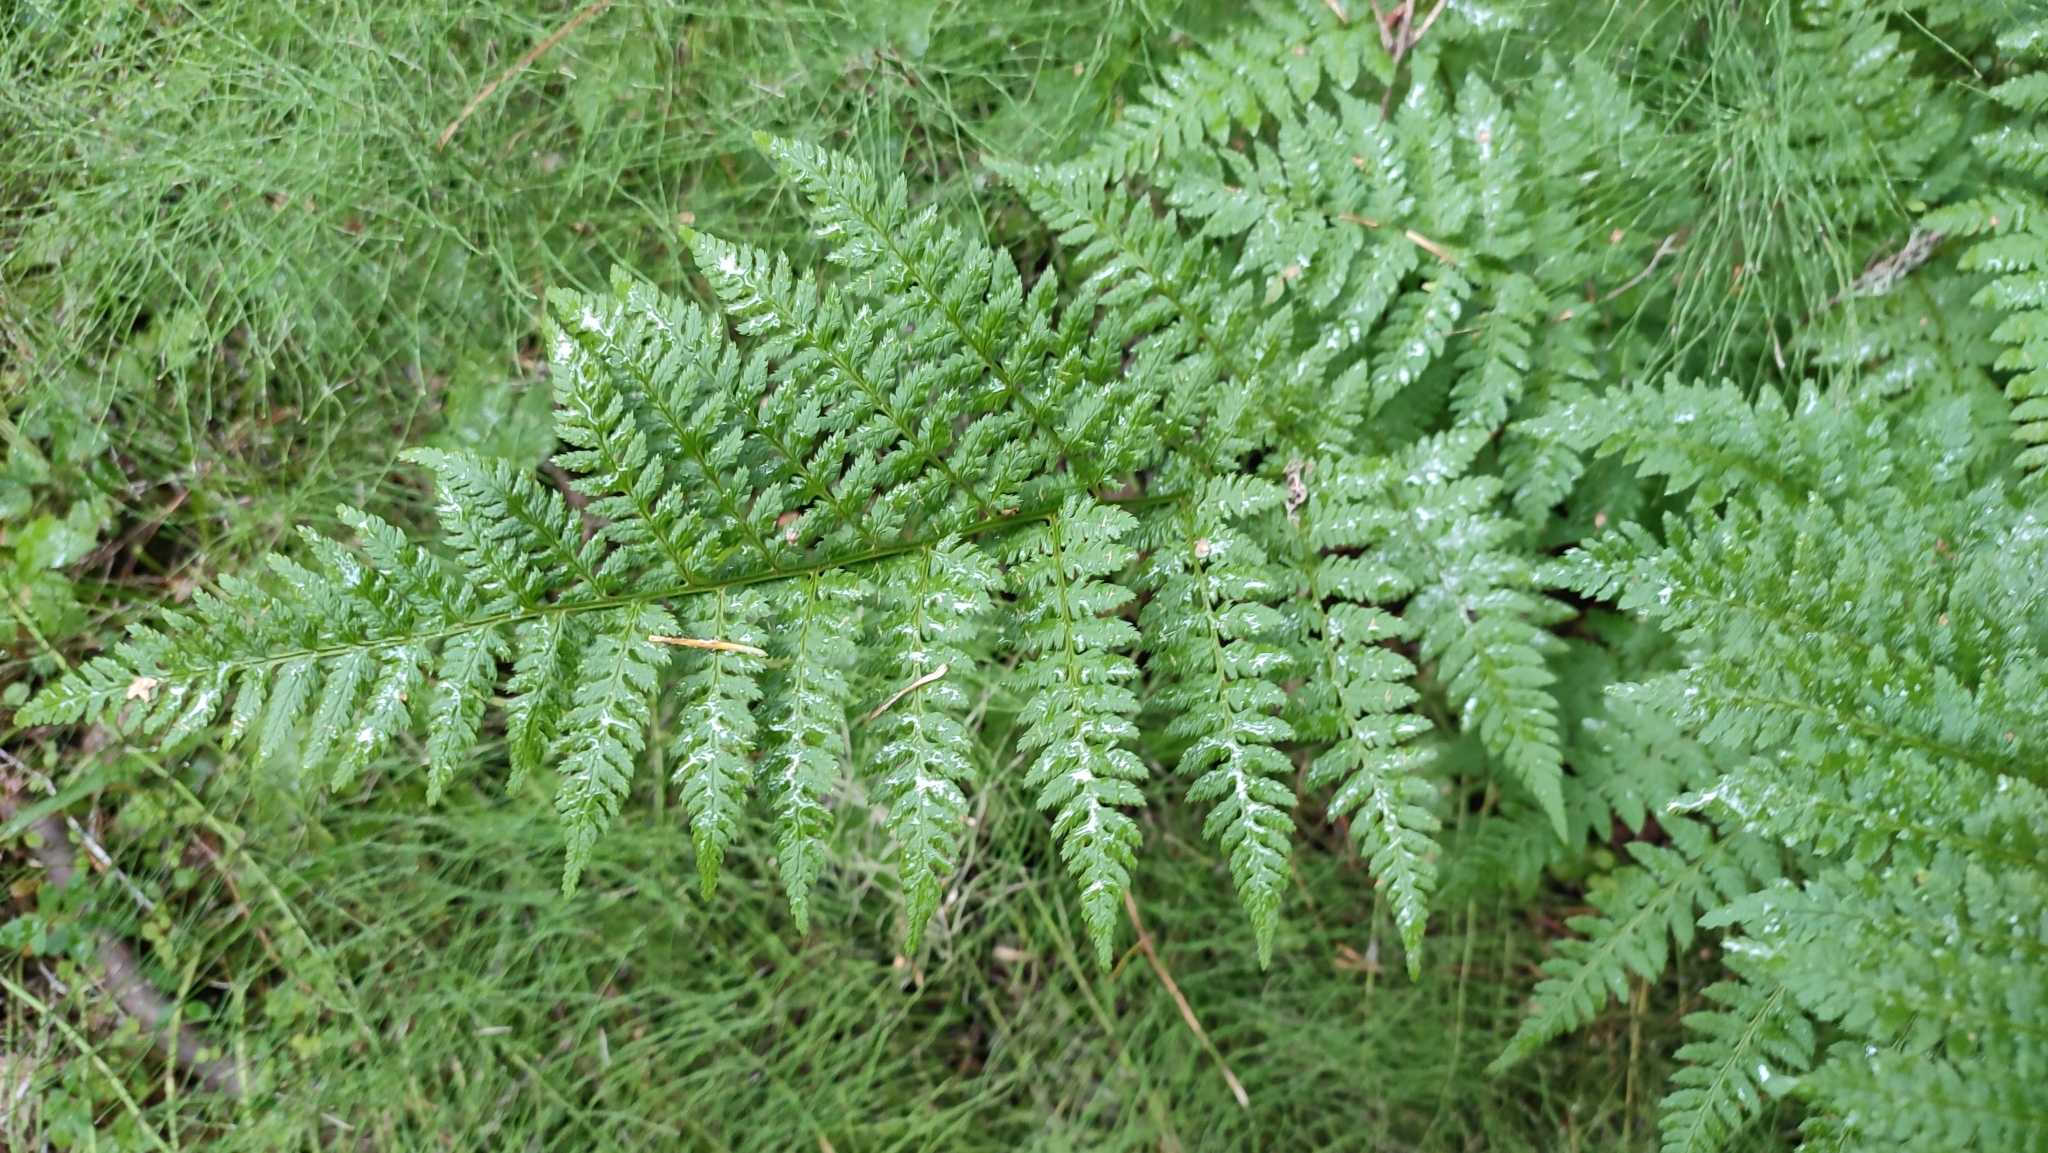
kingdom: Plantae
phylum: Tracheophyta
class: Polypodiopsida
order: Polypodiales
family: Dryopteridaceae
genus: Dryopteris
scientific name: Dryopteris carthusiana
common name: Narrow buckler-fern
